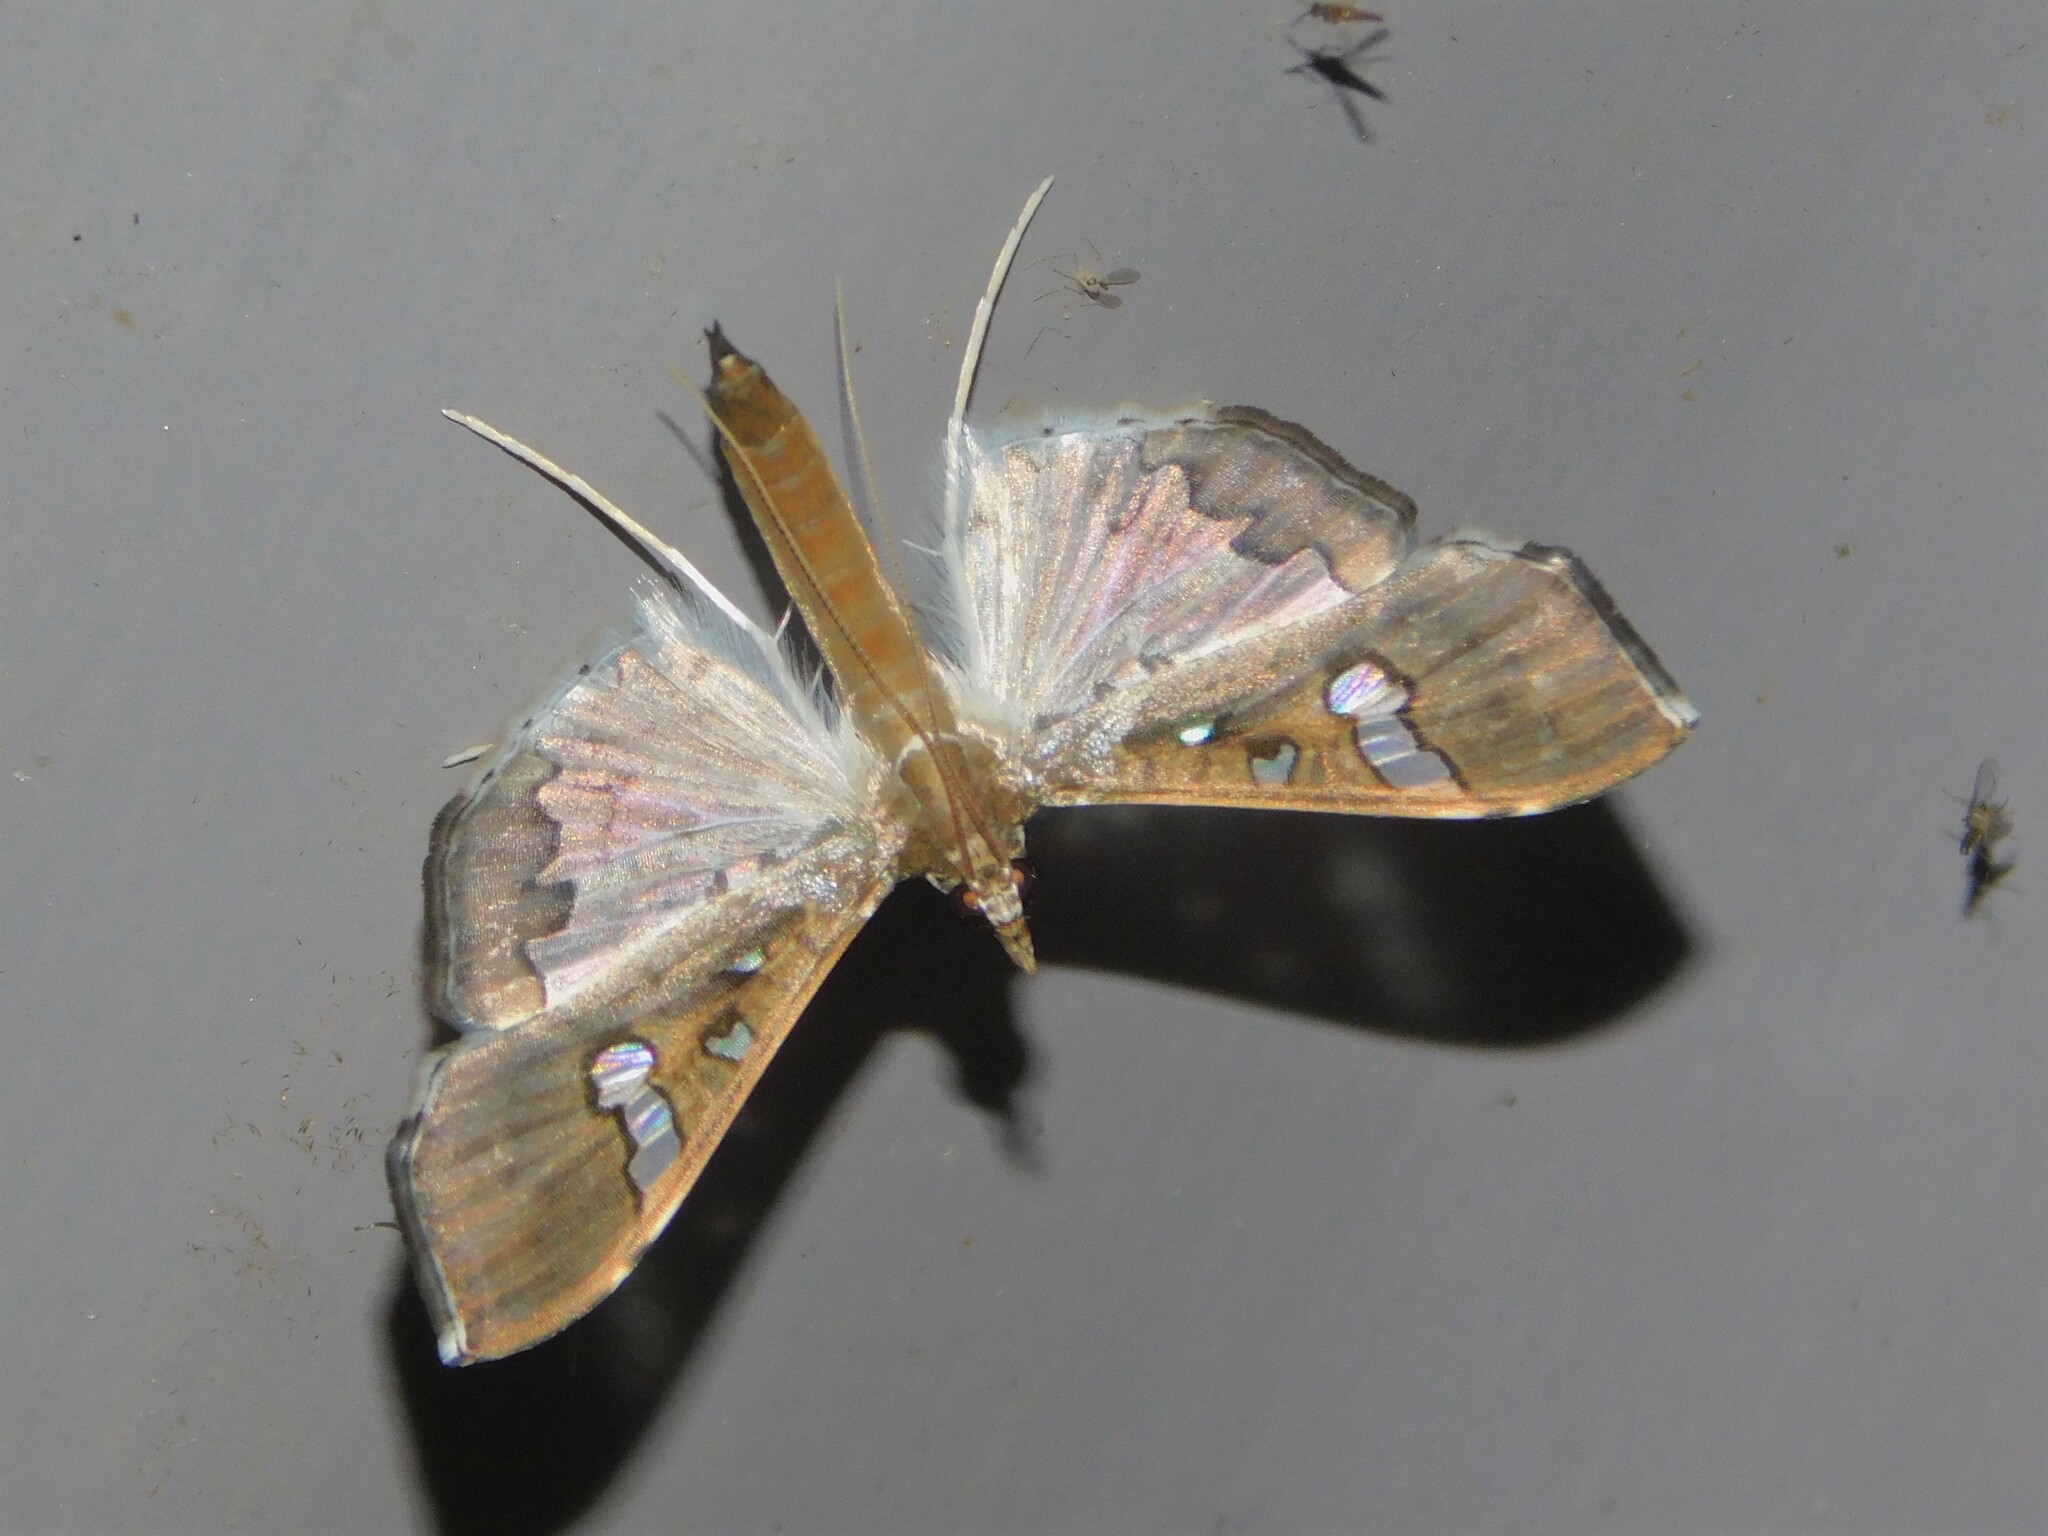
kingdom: Animalia
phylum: Arthropoda
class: Insecta
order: Lepidoptera
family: Crambidae
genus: Maruca
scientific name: Maruca vitrata
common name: Maruca pod borer
